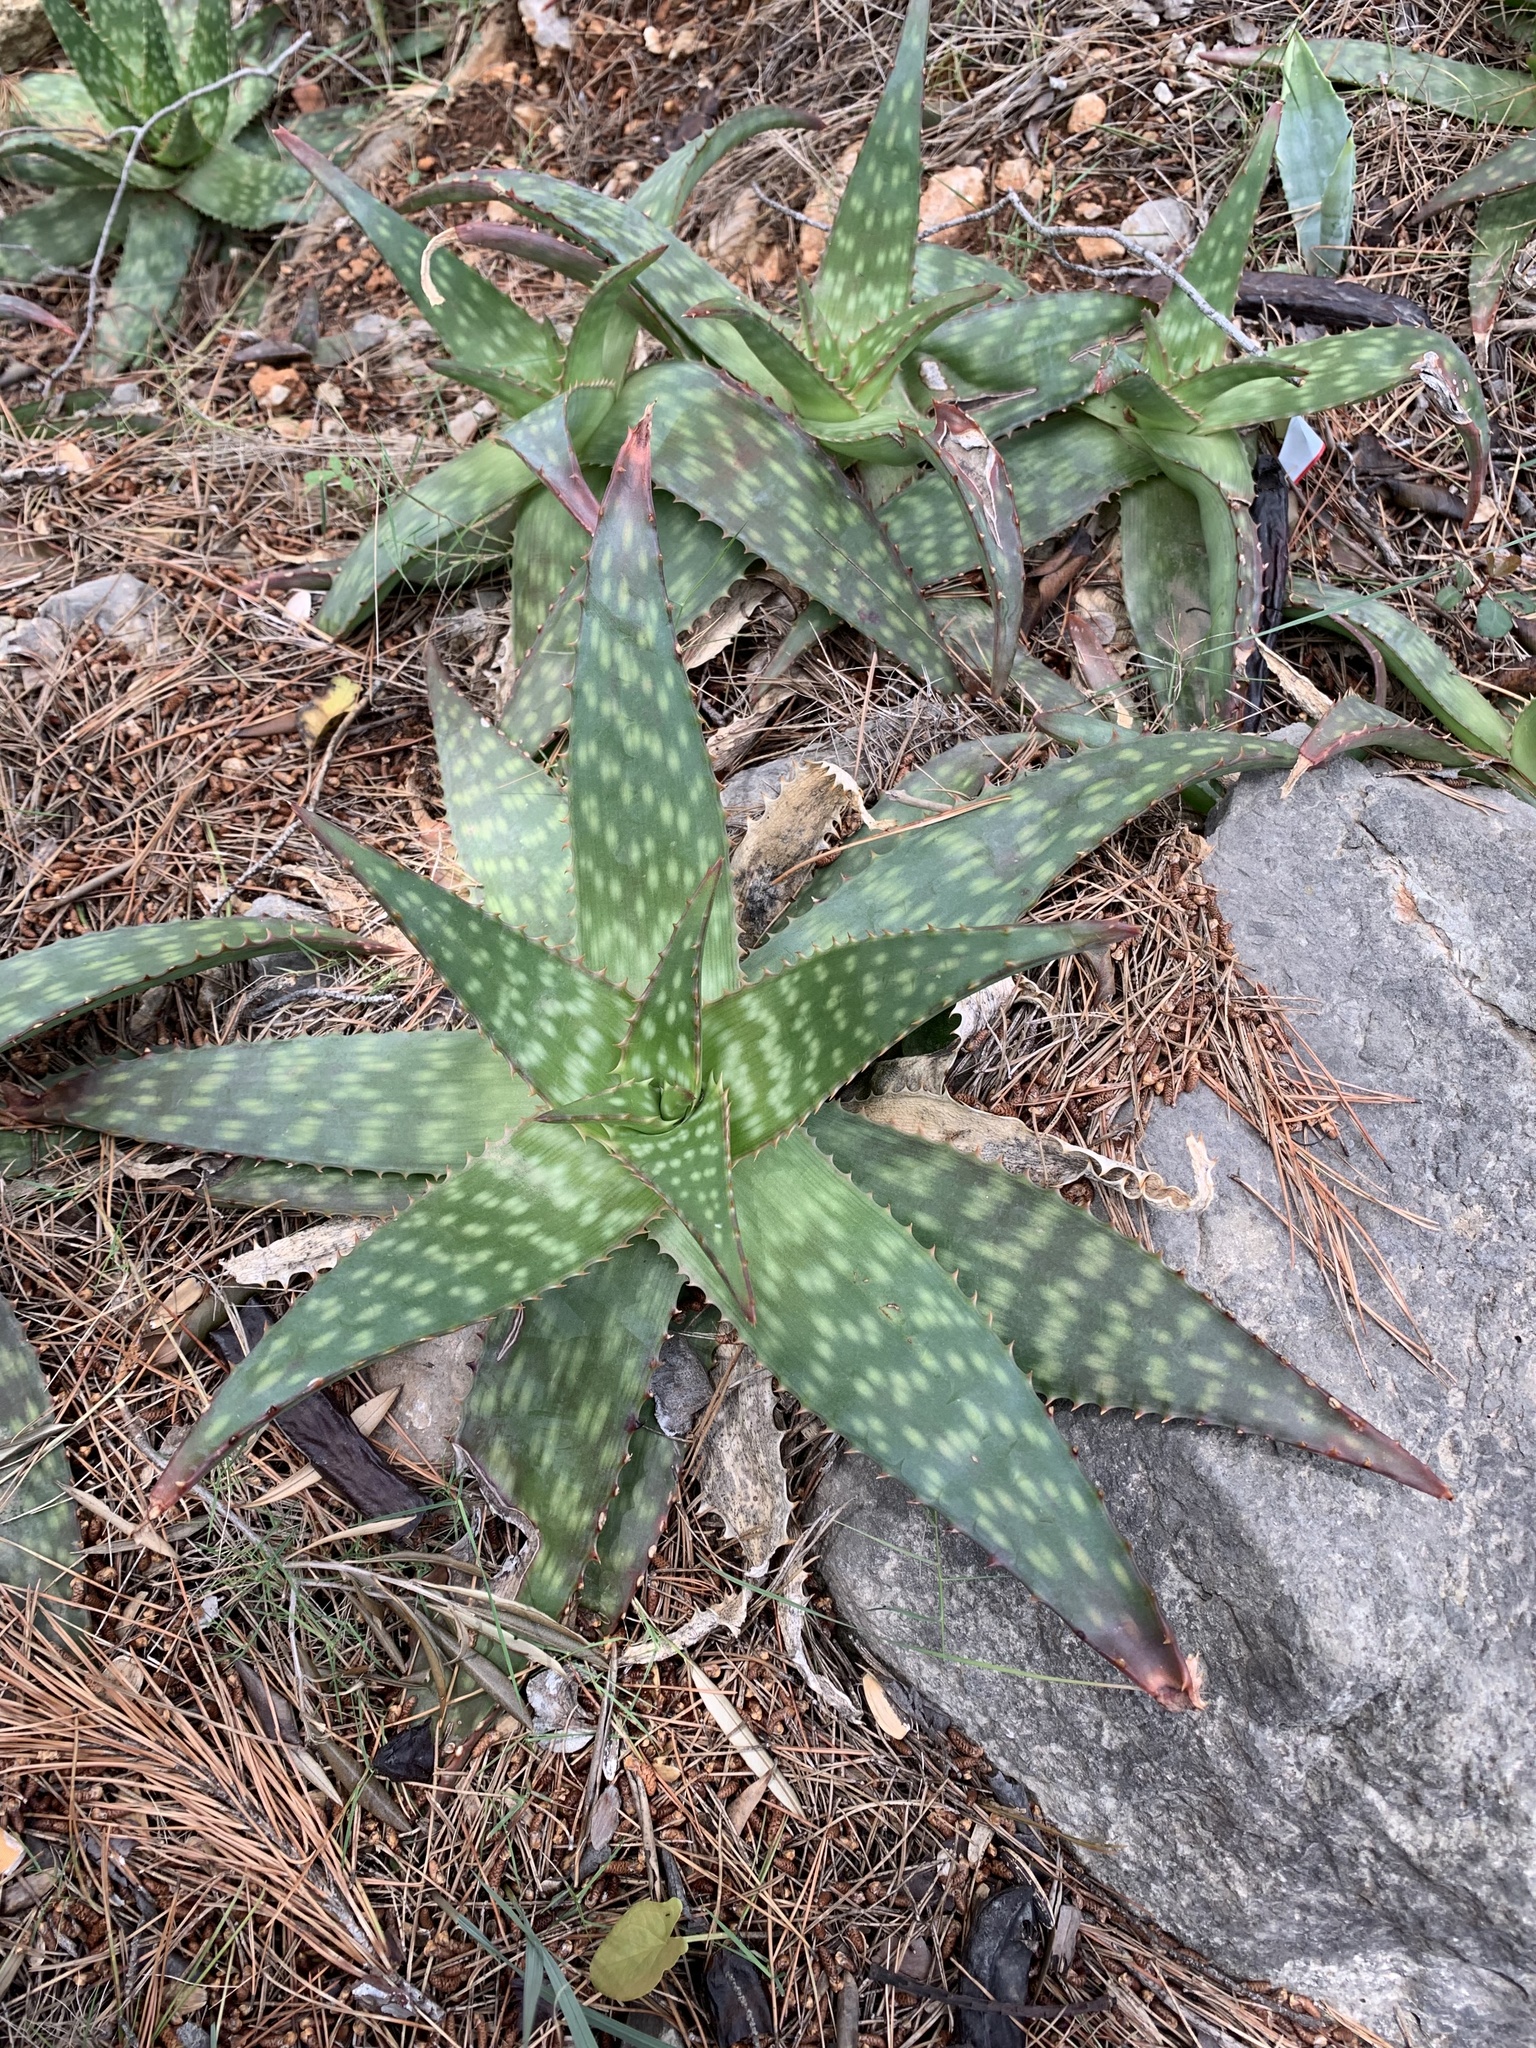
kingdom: Plantae
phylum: Tracheophyta
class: Liliopsida
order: Asparagales
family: Asphodelaceae
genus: Aloe
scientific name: Aloe maculata
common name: Broadleaf aloe
